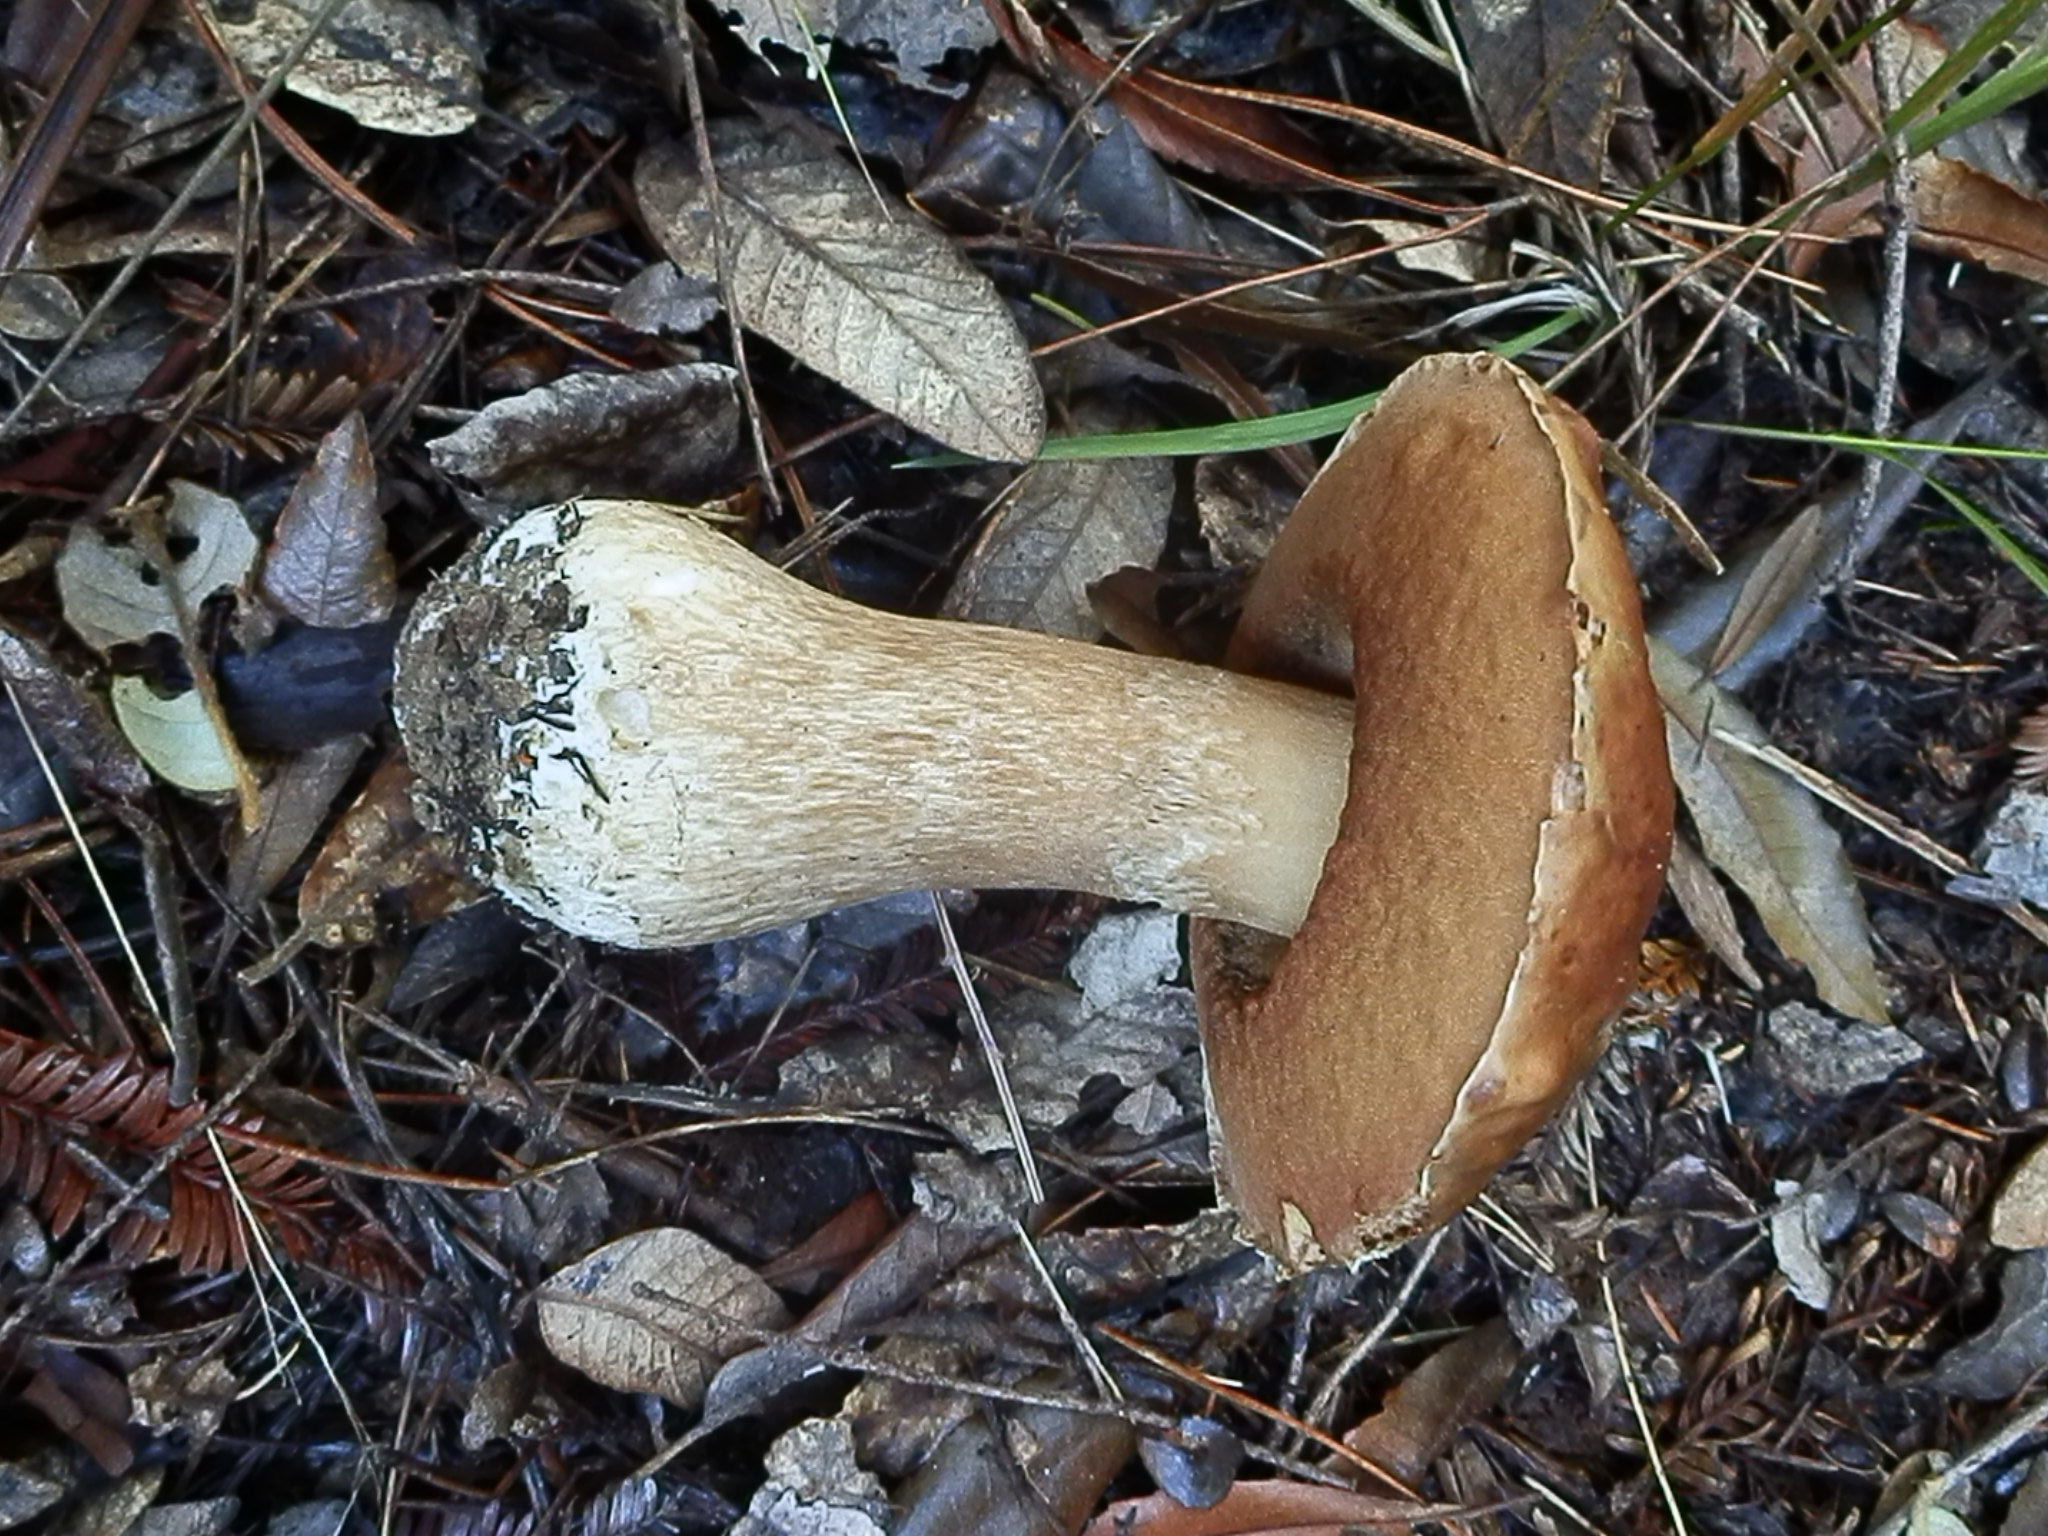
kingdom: Fungi
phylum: Basidiomycota
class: Agaricomycetes
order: Boletales
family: Boletaceae
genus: Boletus
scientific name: Boletus regineus
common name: Queen bolete
